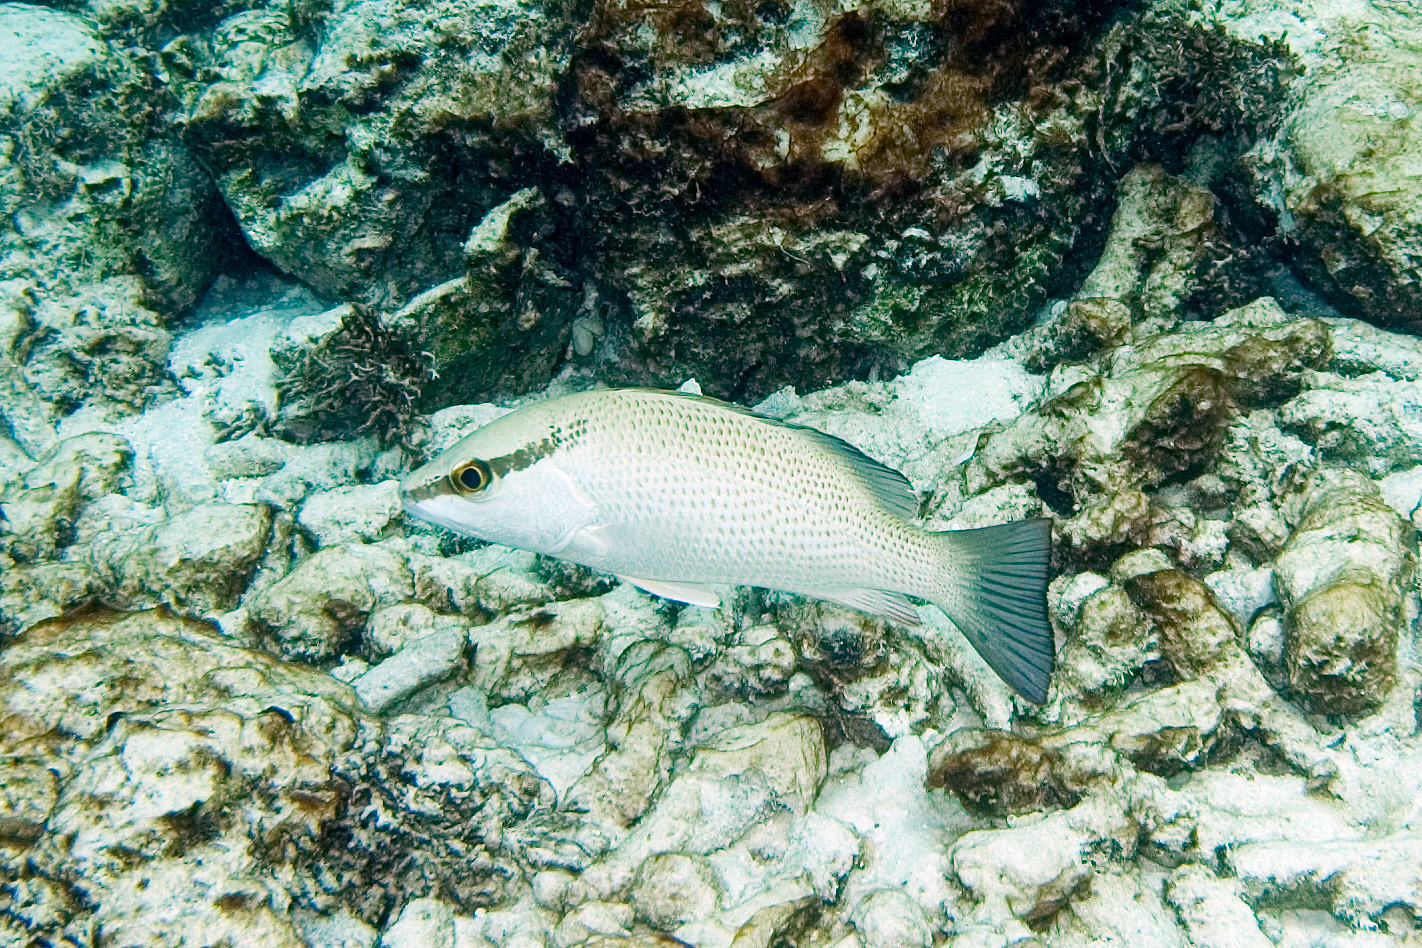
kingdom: Animalia
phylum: Chordata
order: Perciformes
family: Lutjanidae
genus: Lutjanus
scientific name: Lutjanus griseus
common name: Gray snapper
